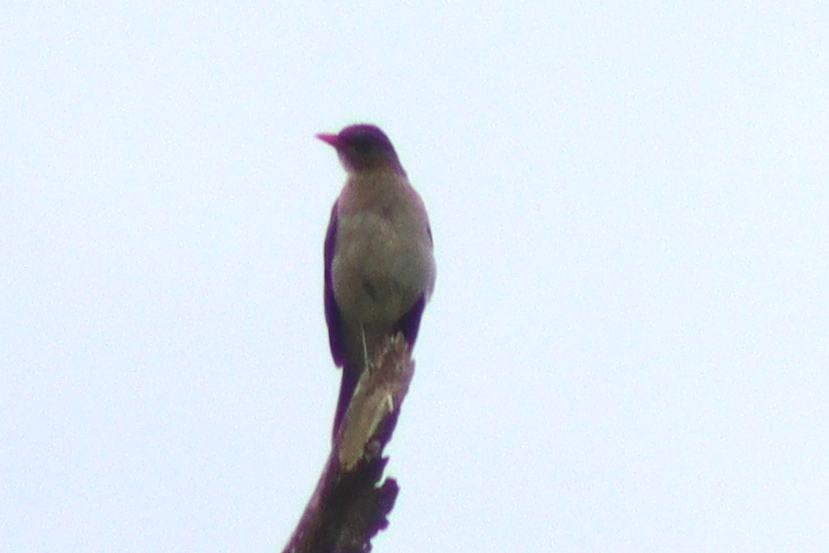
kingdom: Animalia
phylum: Chordata
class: Aves
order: Passeriformes
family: Turdidae
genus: Turdus
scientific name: Turdus amaurochalinus
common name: Creamy-bellied thrush
